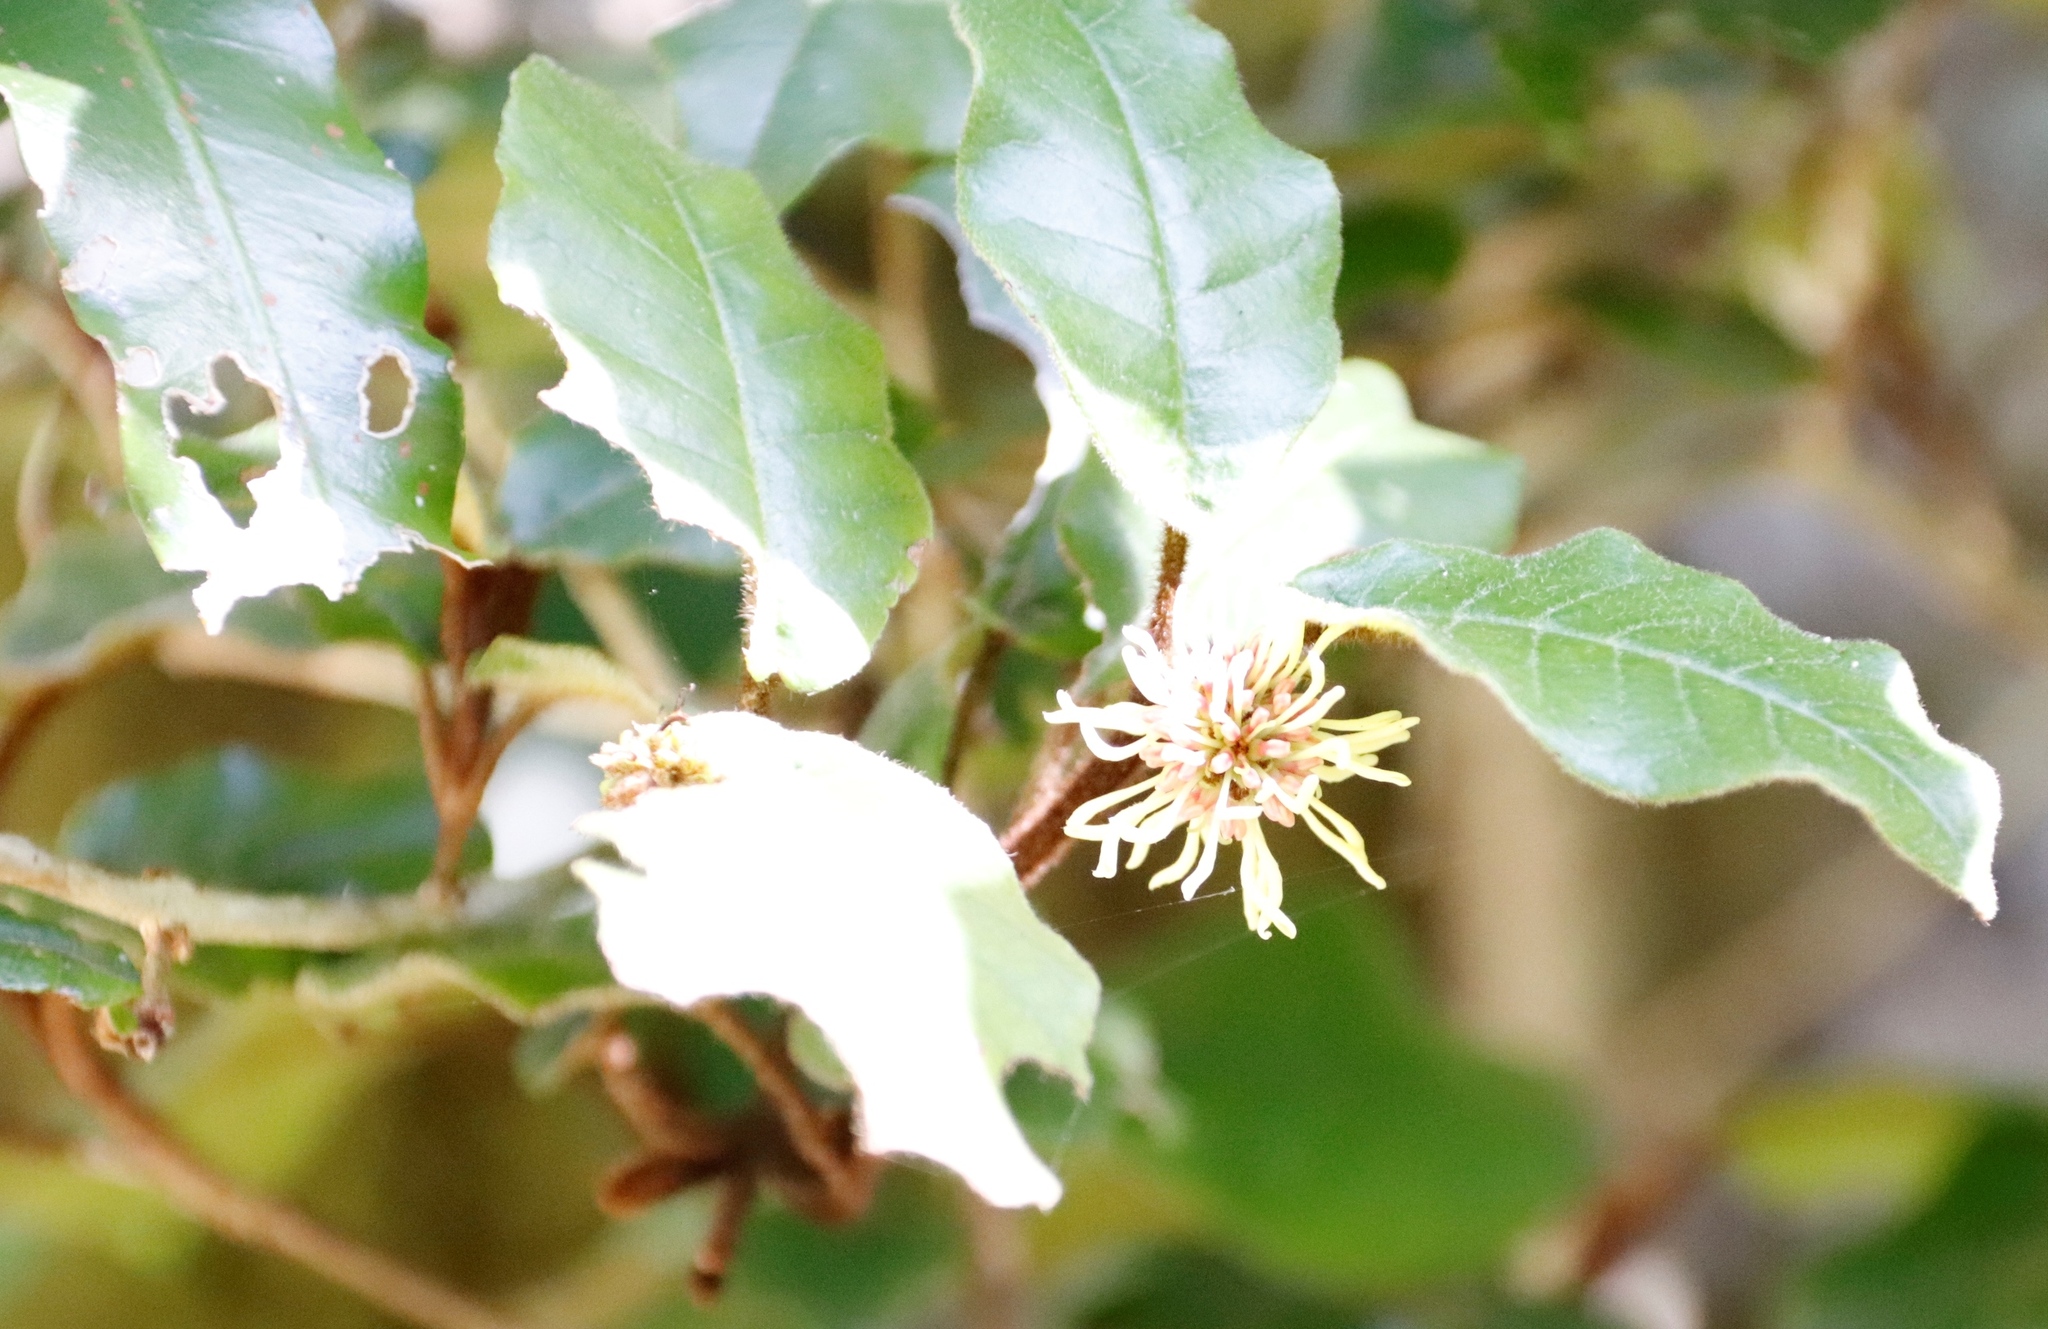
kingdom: Plantae
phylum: Tracheophyta
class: Magnoliopsida
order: Saxifragales
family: Hamamelidaceae
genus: Trichocladus
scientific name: Trichocladus crinitus
